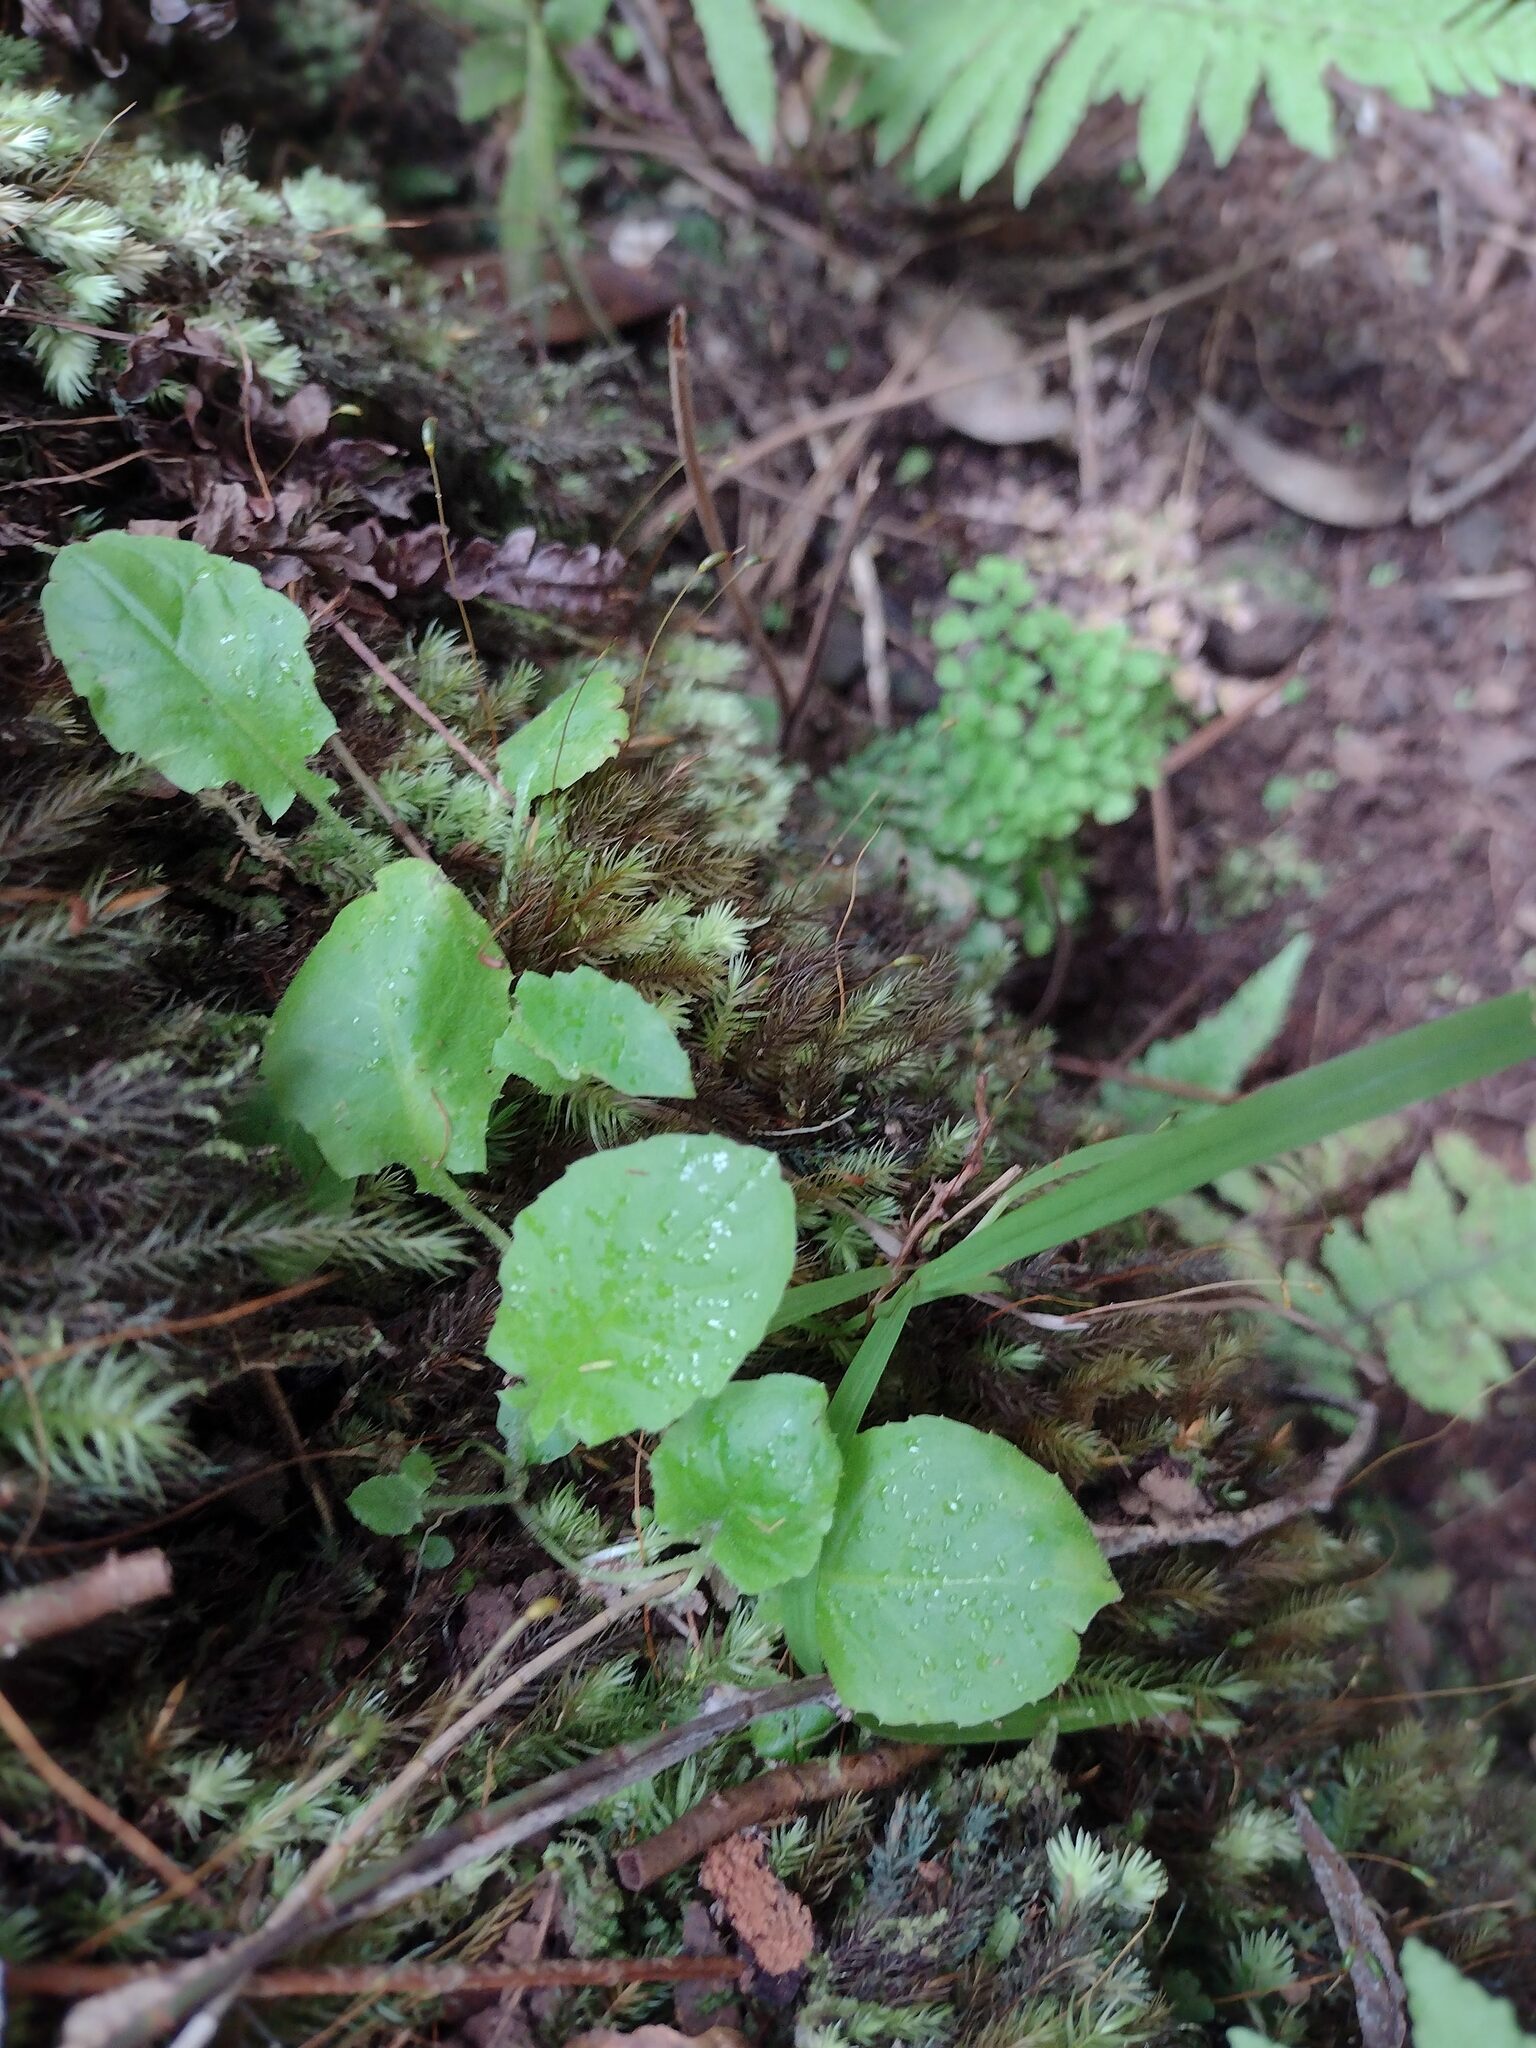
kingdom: Plantae
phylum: Tracheophyta
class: Magnoliopsida
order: Asterales
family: Asteraceae
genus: Youngia
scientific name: Youngia japonica
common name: Oriental false hawksbeard
